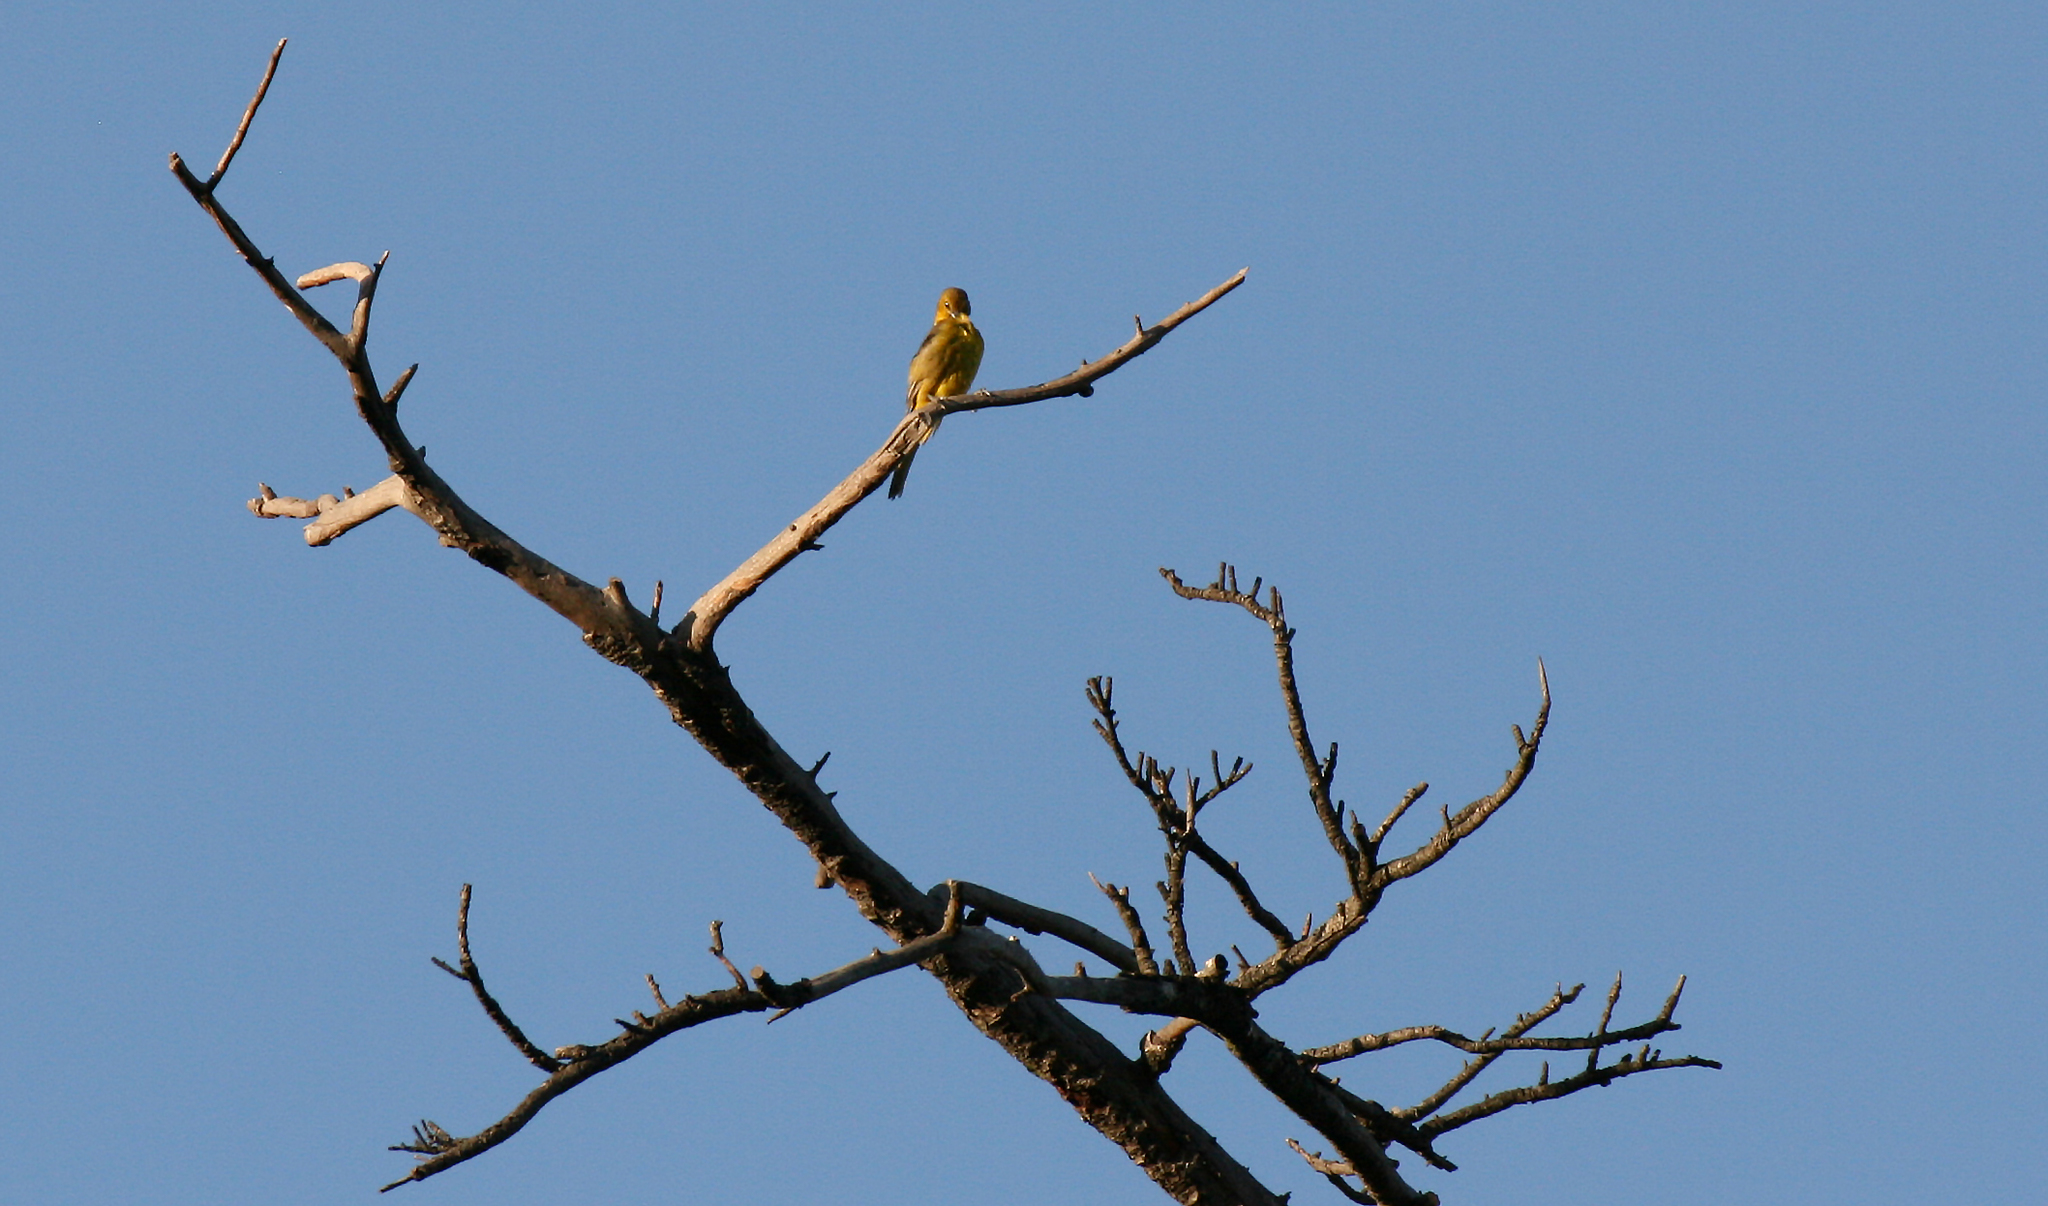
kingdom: Animalia
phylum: Chordata
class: Aves
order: Passeriformes
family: Icteridae
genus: Icterus
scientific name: Icterus cucullatus
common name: Hooded oriole
